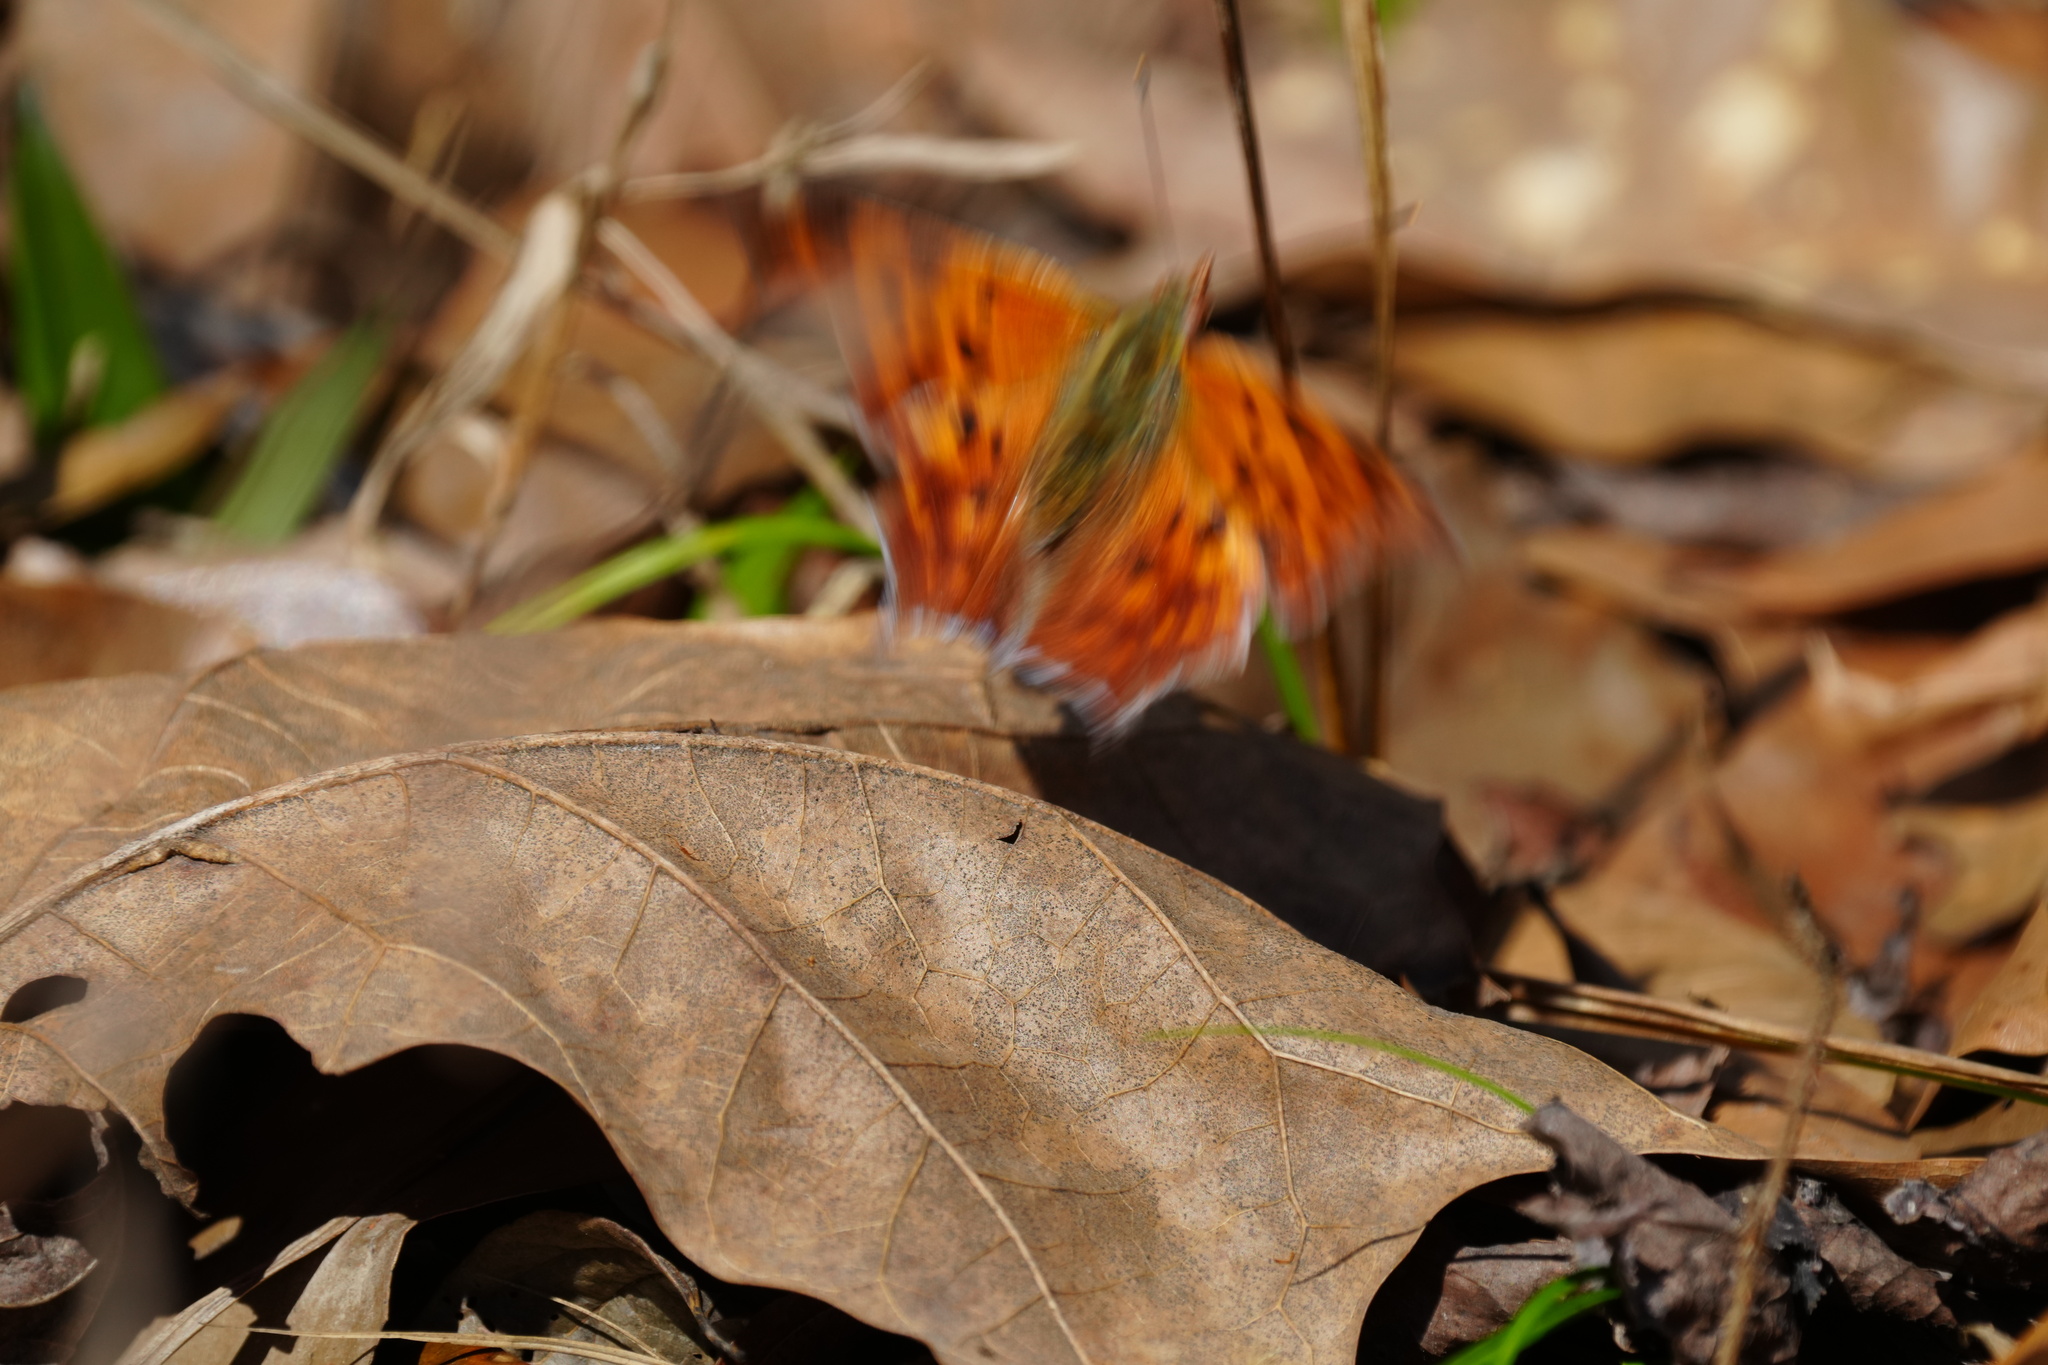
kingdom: Animalia
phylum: Arthropoda
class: Insecta
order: Lepidoptera
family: Nymphalidae
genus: Polygonia
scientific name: Polygonia interrogationis
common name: Question mark
